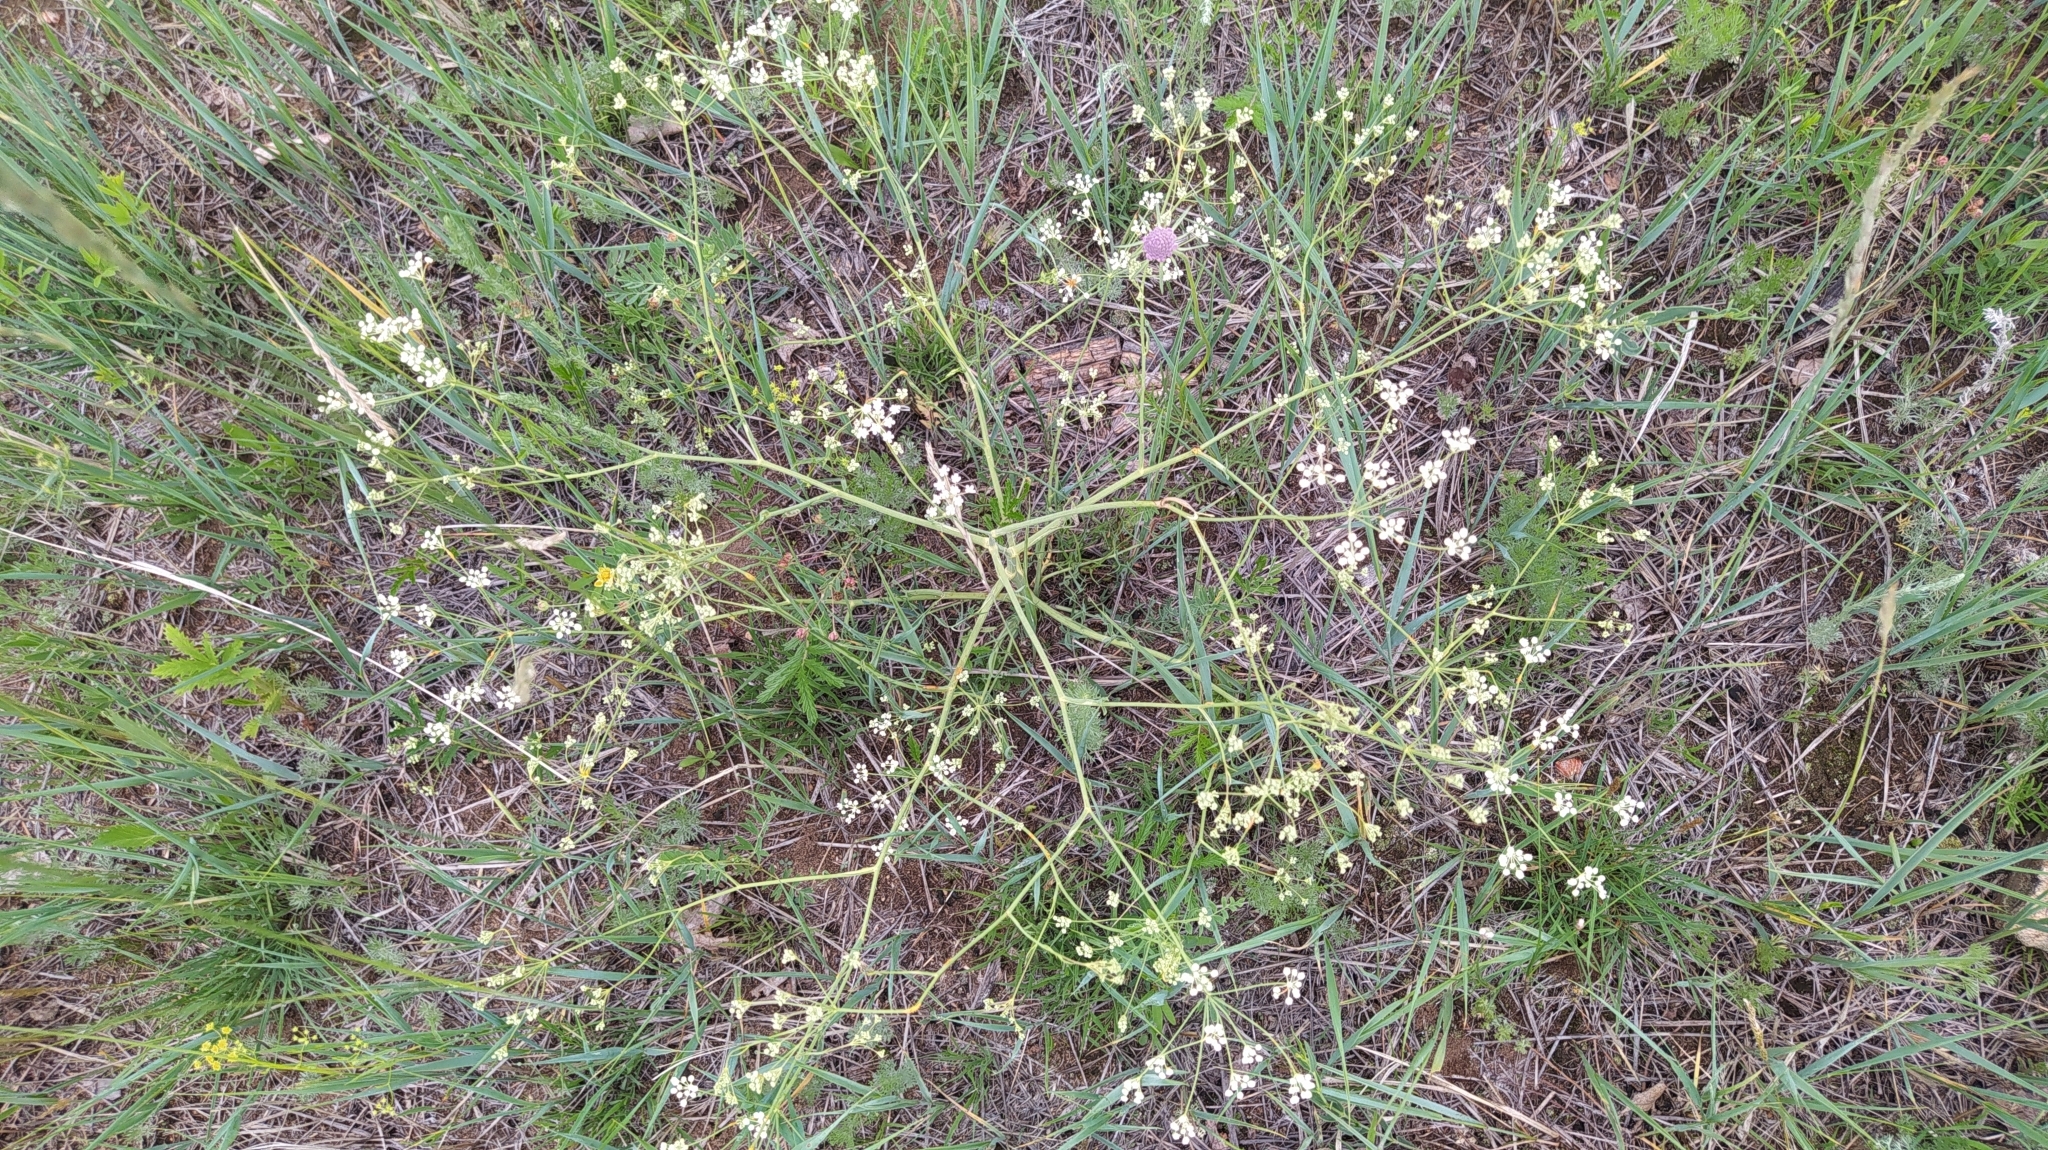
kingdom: Plantae
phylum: Tracheophyta
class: Magnoliopsida
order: Apiales
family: Apiaceae
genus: Saposhnikovia
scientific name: Saposhnikovia divaricata
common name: Siler
